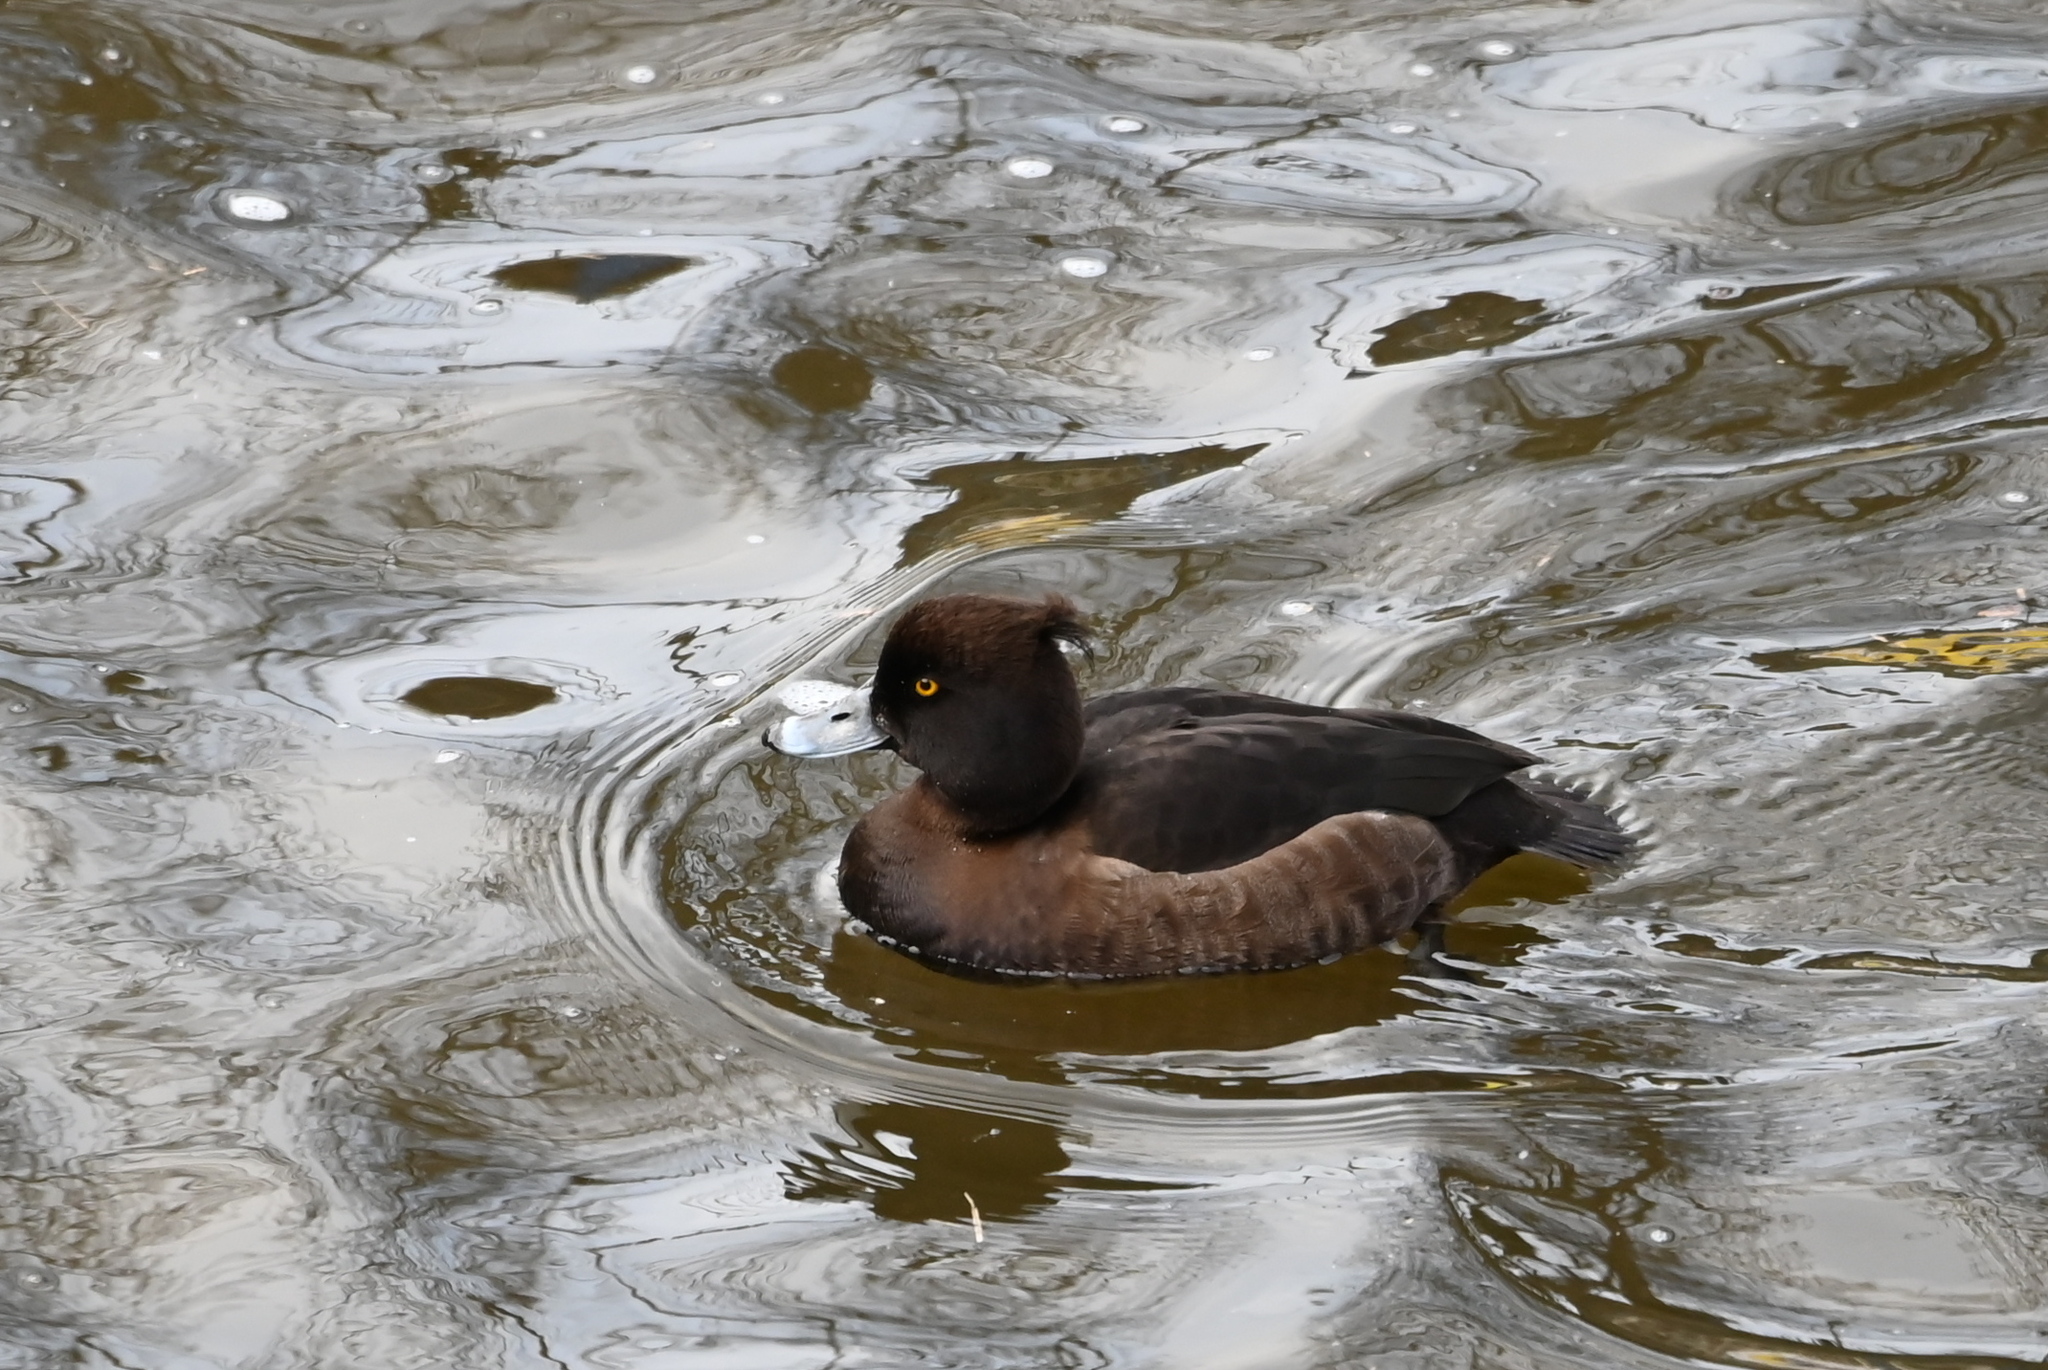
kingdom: Animalia
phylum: Chordata
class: Aves
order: Anseriformes
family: Anatidae
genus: Aythya
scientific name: Aythya fuligula
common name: Tufted duck
